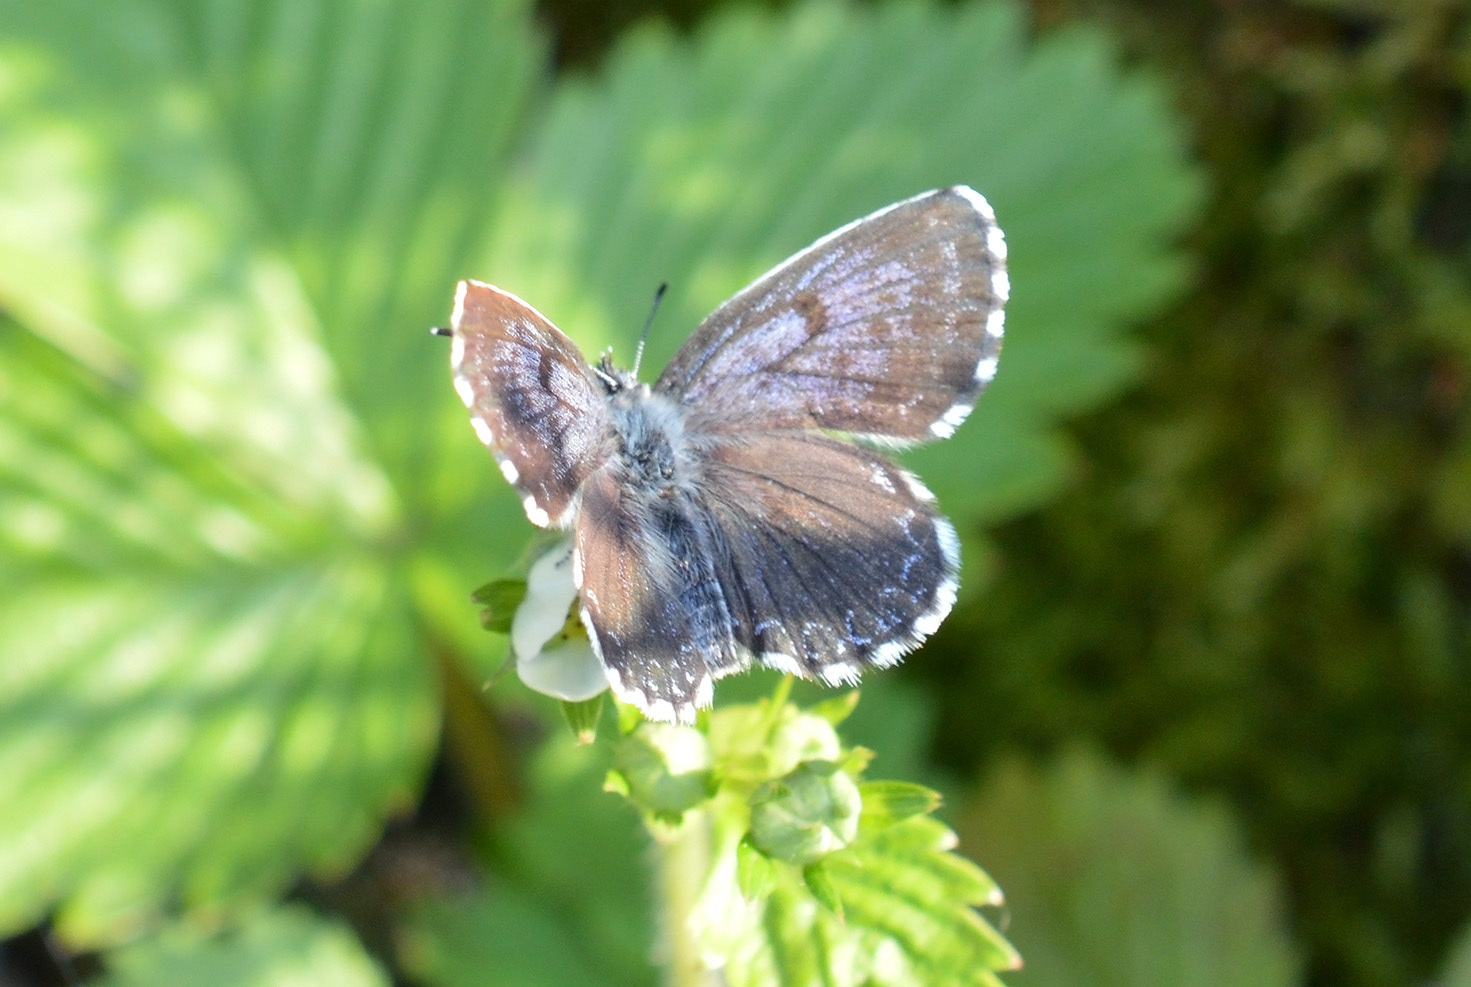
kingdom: Animalia
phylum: Arthropoda
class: Insecta
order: Lepidoptera
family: Lycaenidae
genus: Scolitantides
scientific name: Scolitantides orion
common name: Chequered blue
